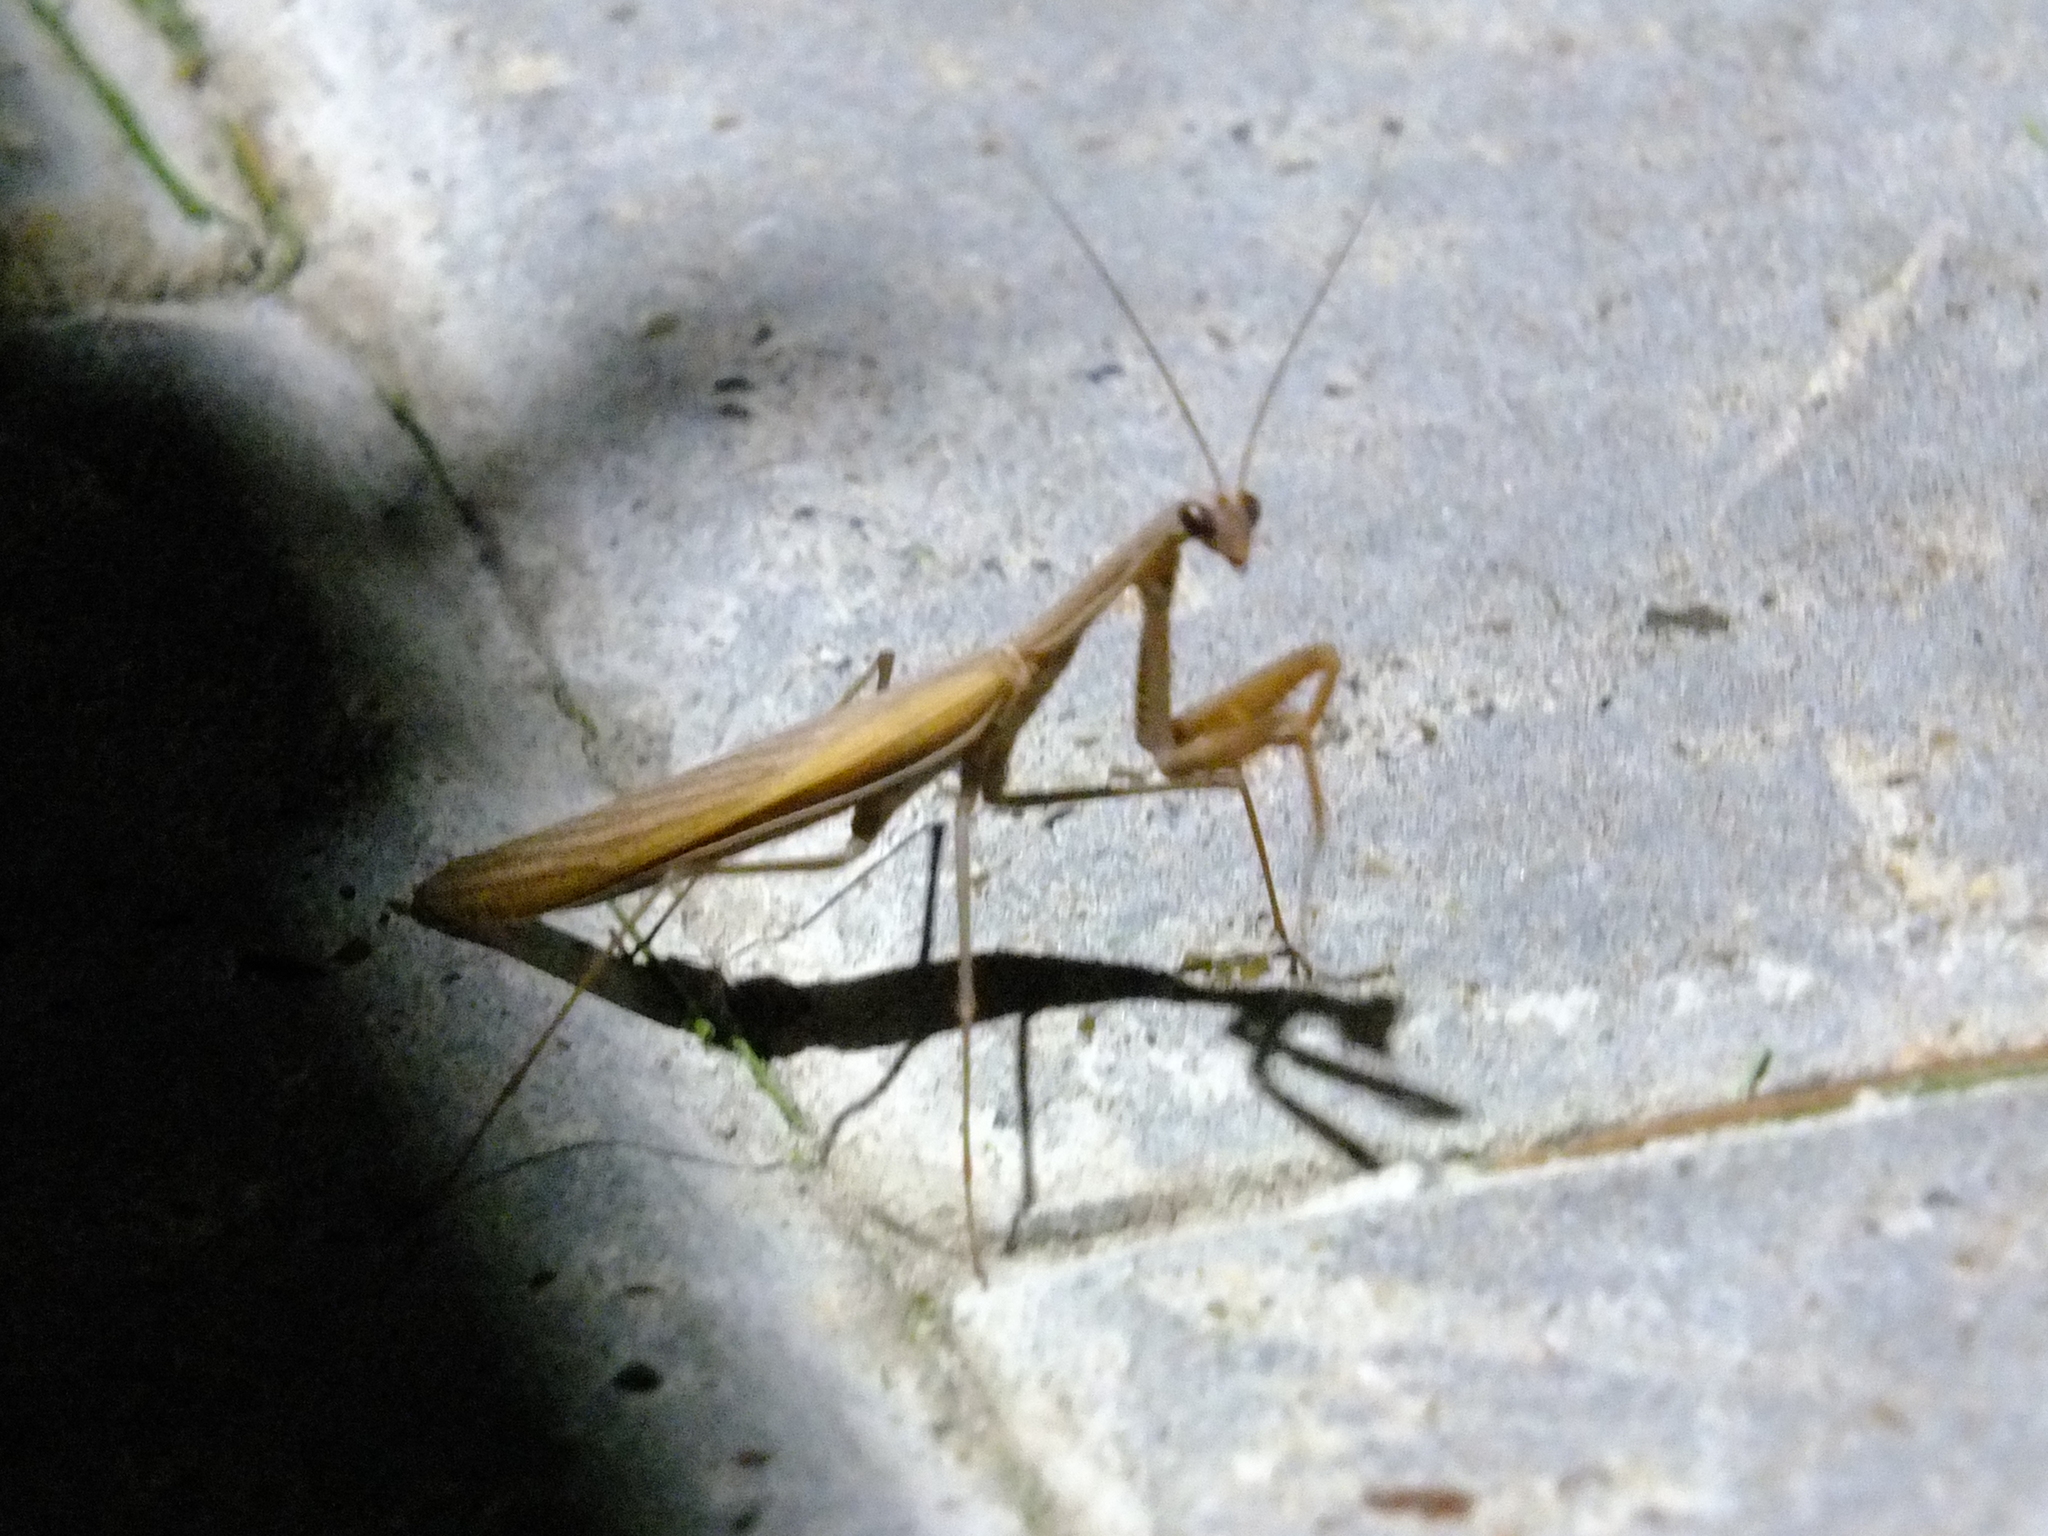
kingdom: Animalia
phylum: Arthropoda
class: Insecta
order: Mantodea
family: Mantidae
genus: Mantis
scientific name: Mantis religiosa
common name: Praying mantis
